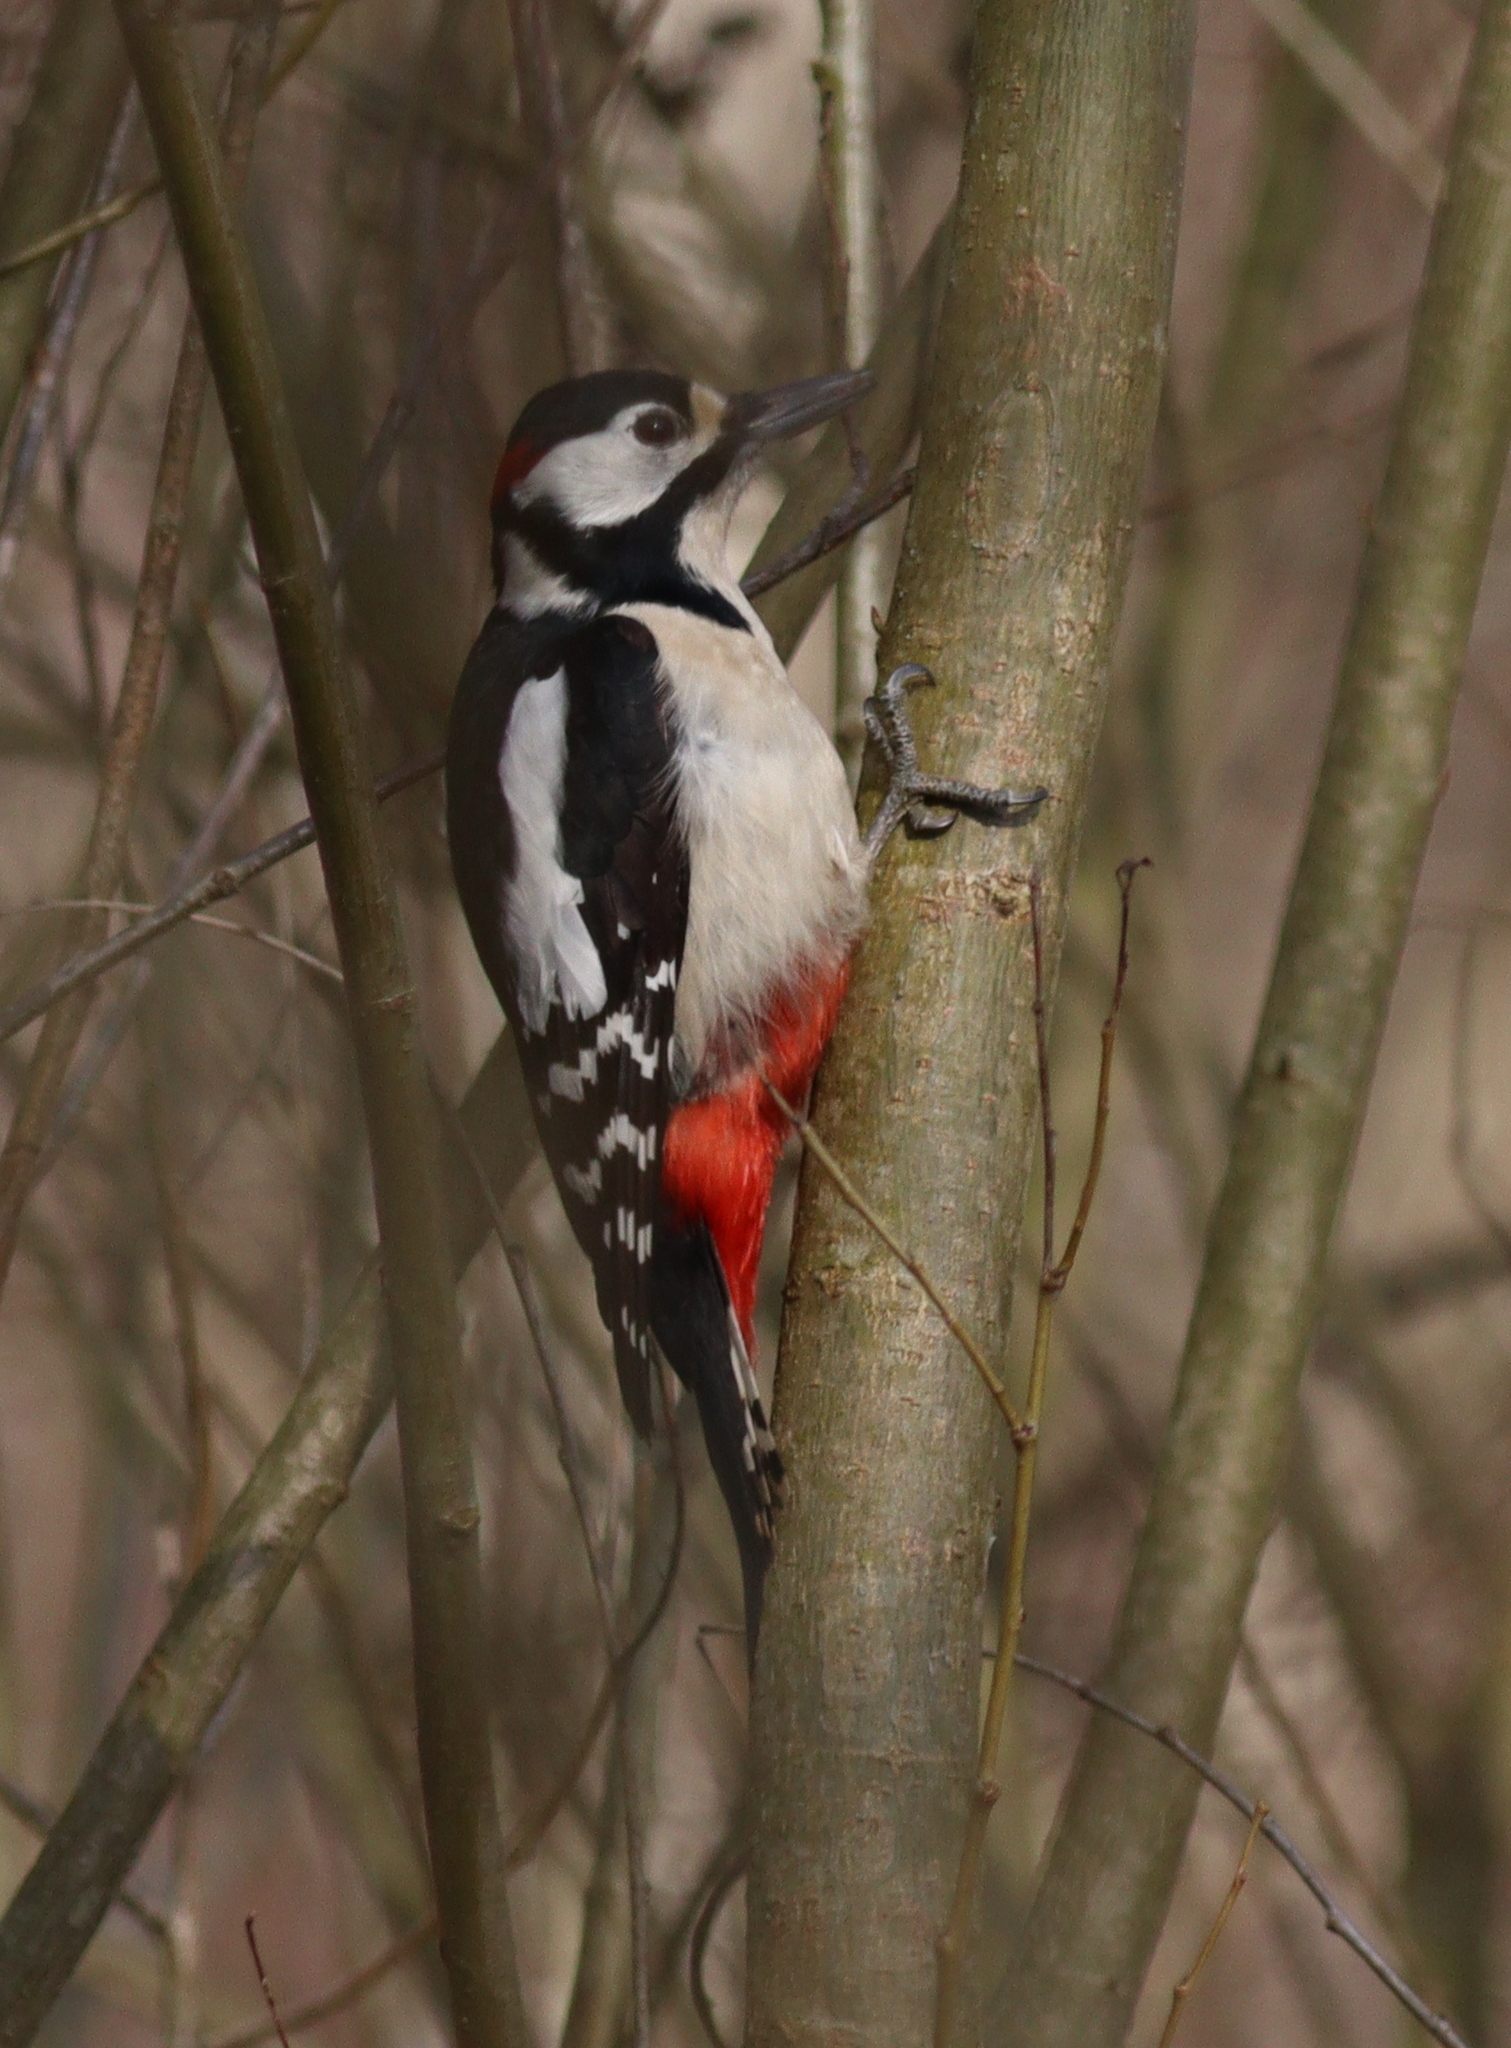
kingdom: Animalia
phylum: Chordata
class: Aves
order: Piciformes
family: Picidae
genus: Dendrocopos
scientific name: Dendrocopos major
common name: Great spotted woodpecker
